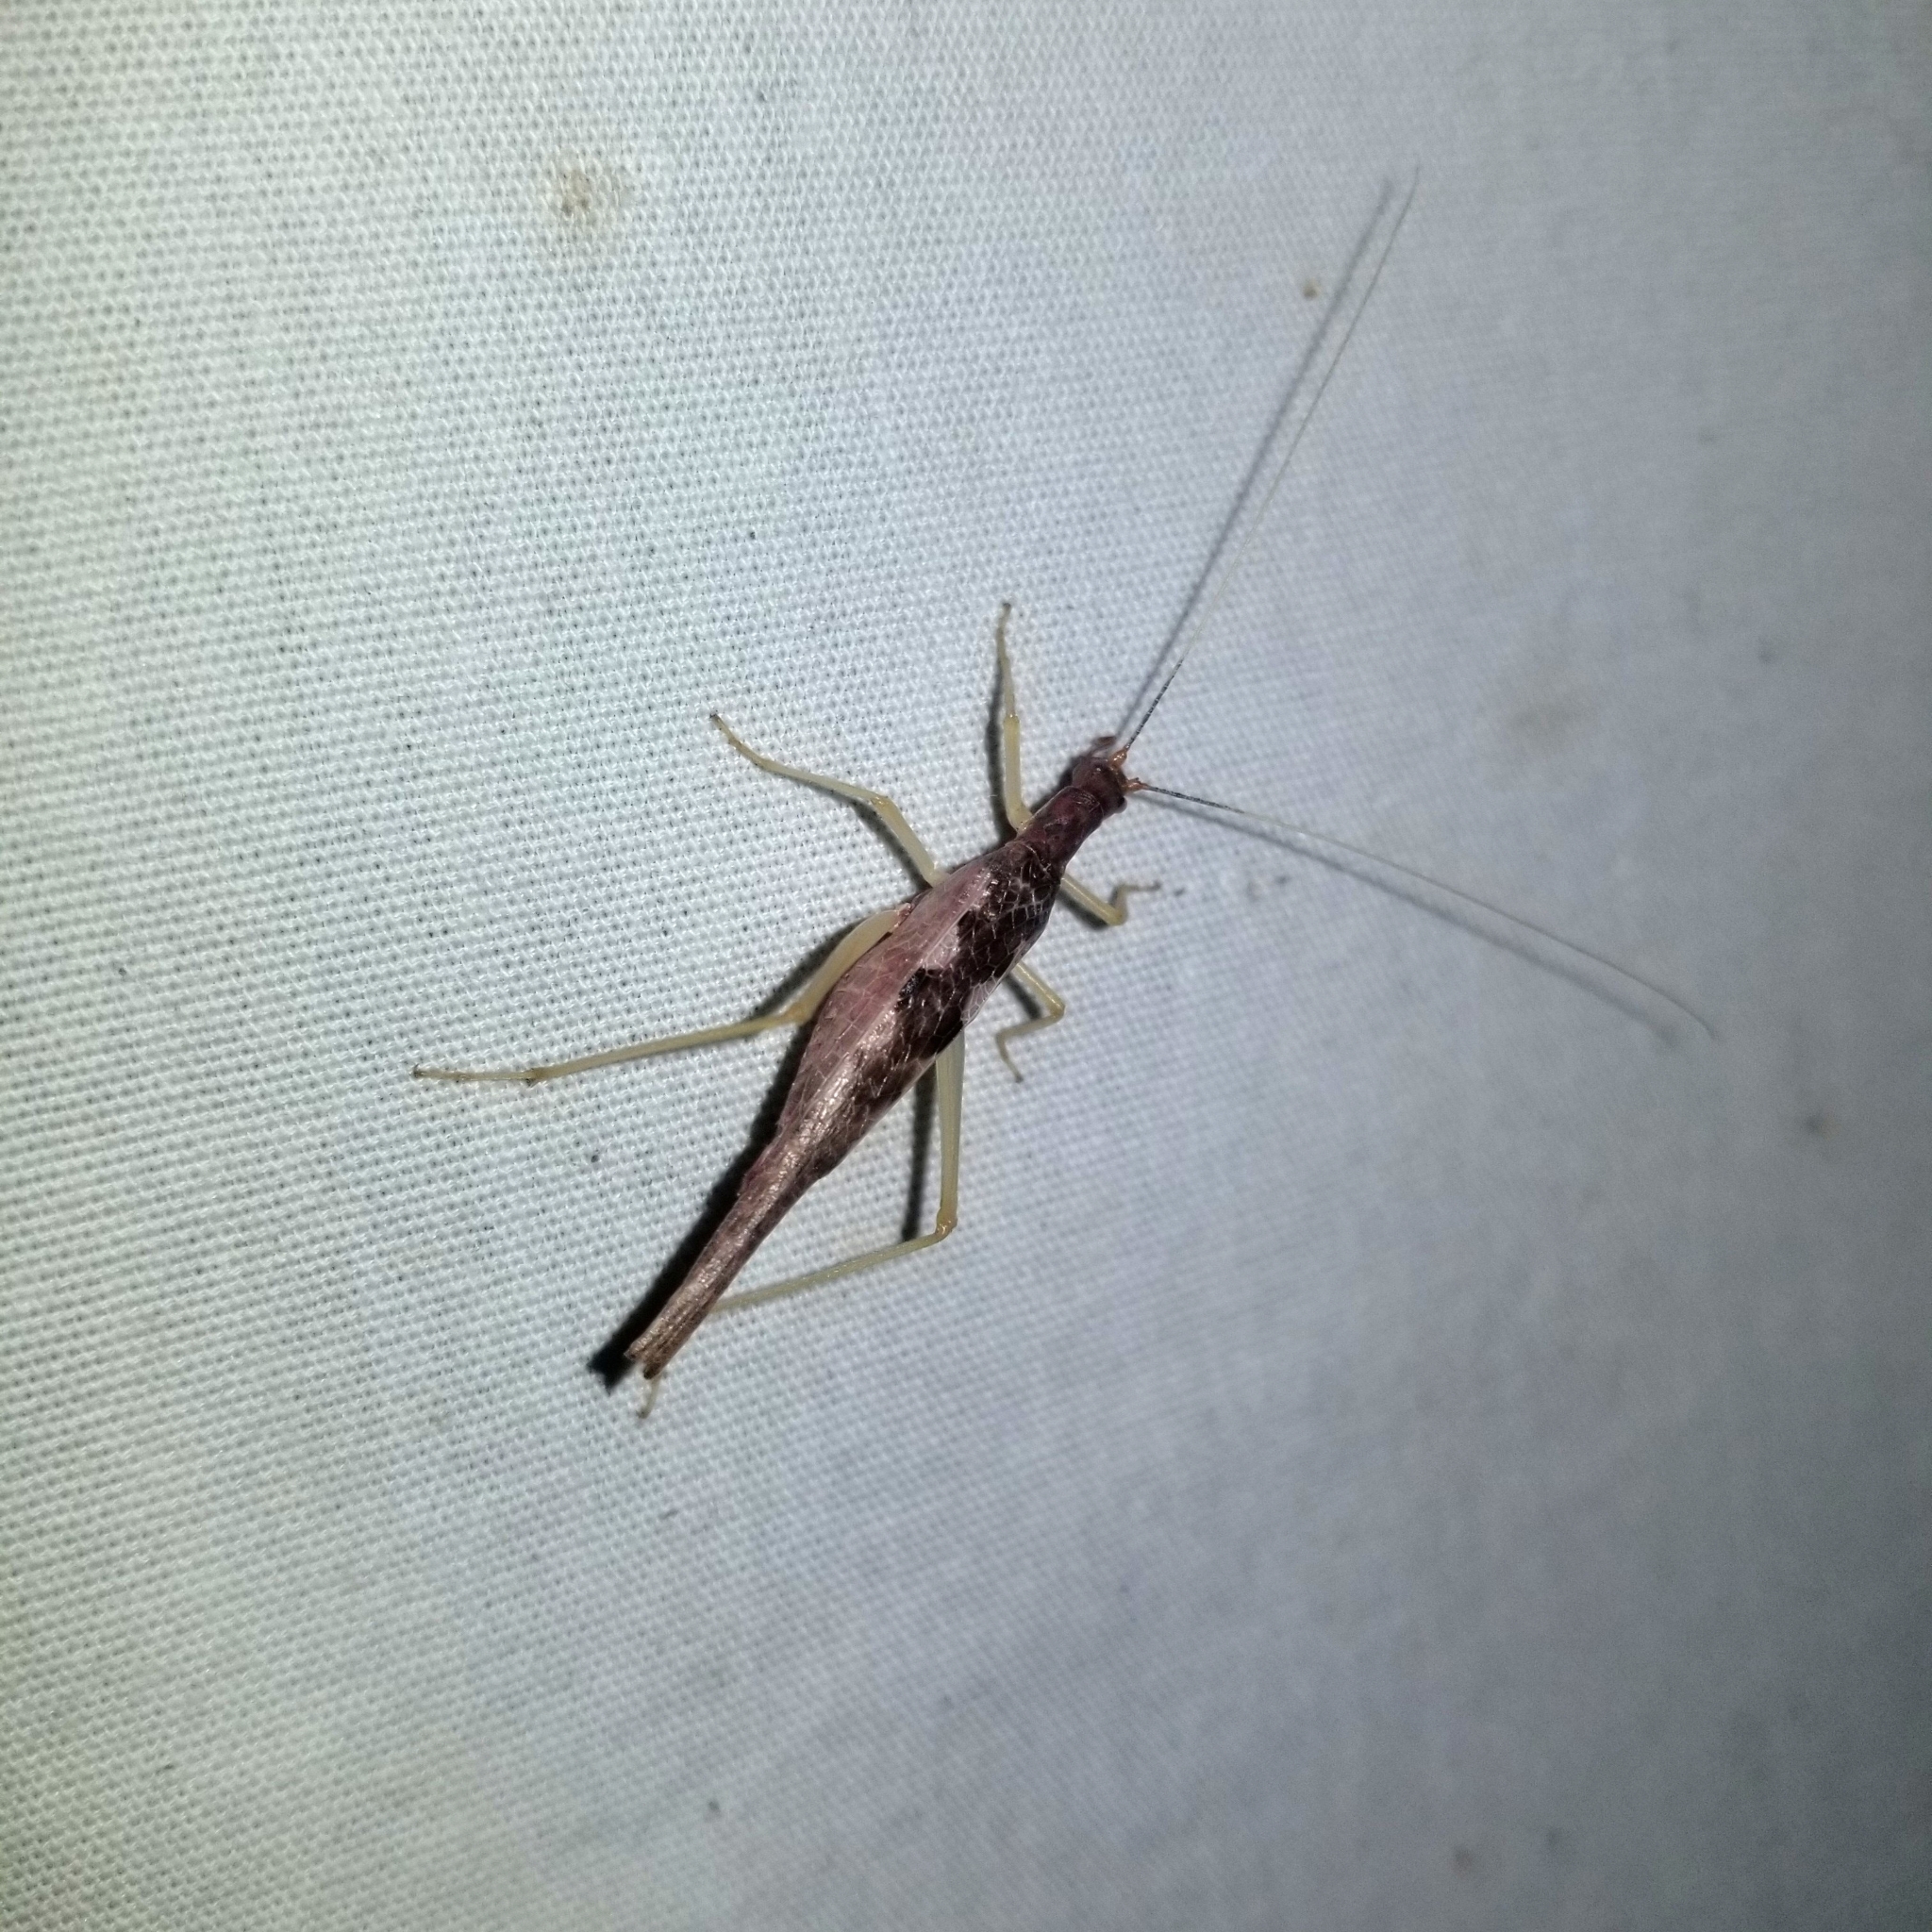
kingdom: Animalia
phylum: Arthropoda
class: Insecta
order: Orthoptera
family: Gryllidae
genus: Neoxabea
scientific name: Neoxabea bipunctata
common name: Two-spotted tree cricket
